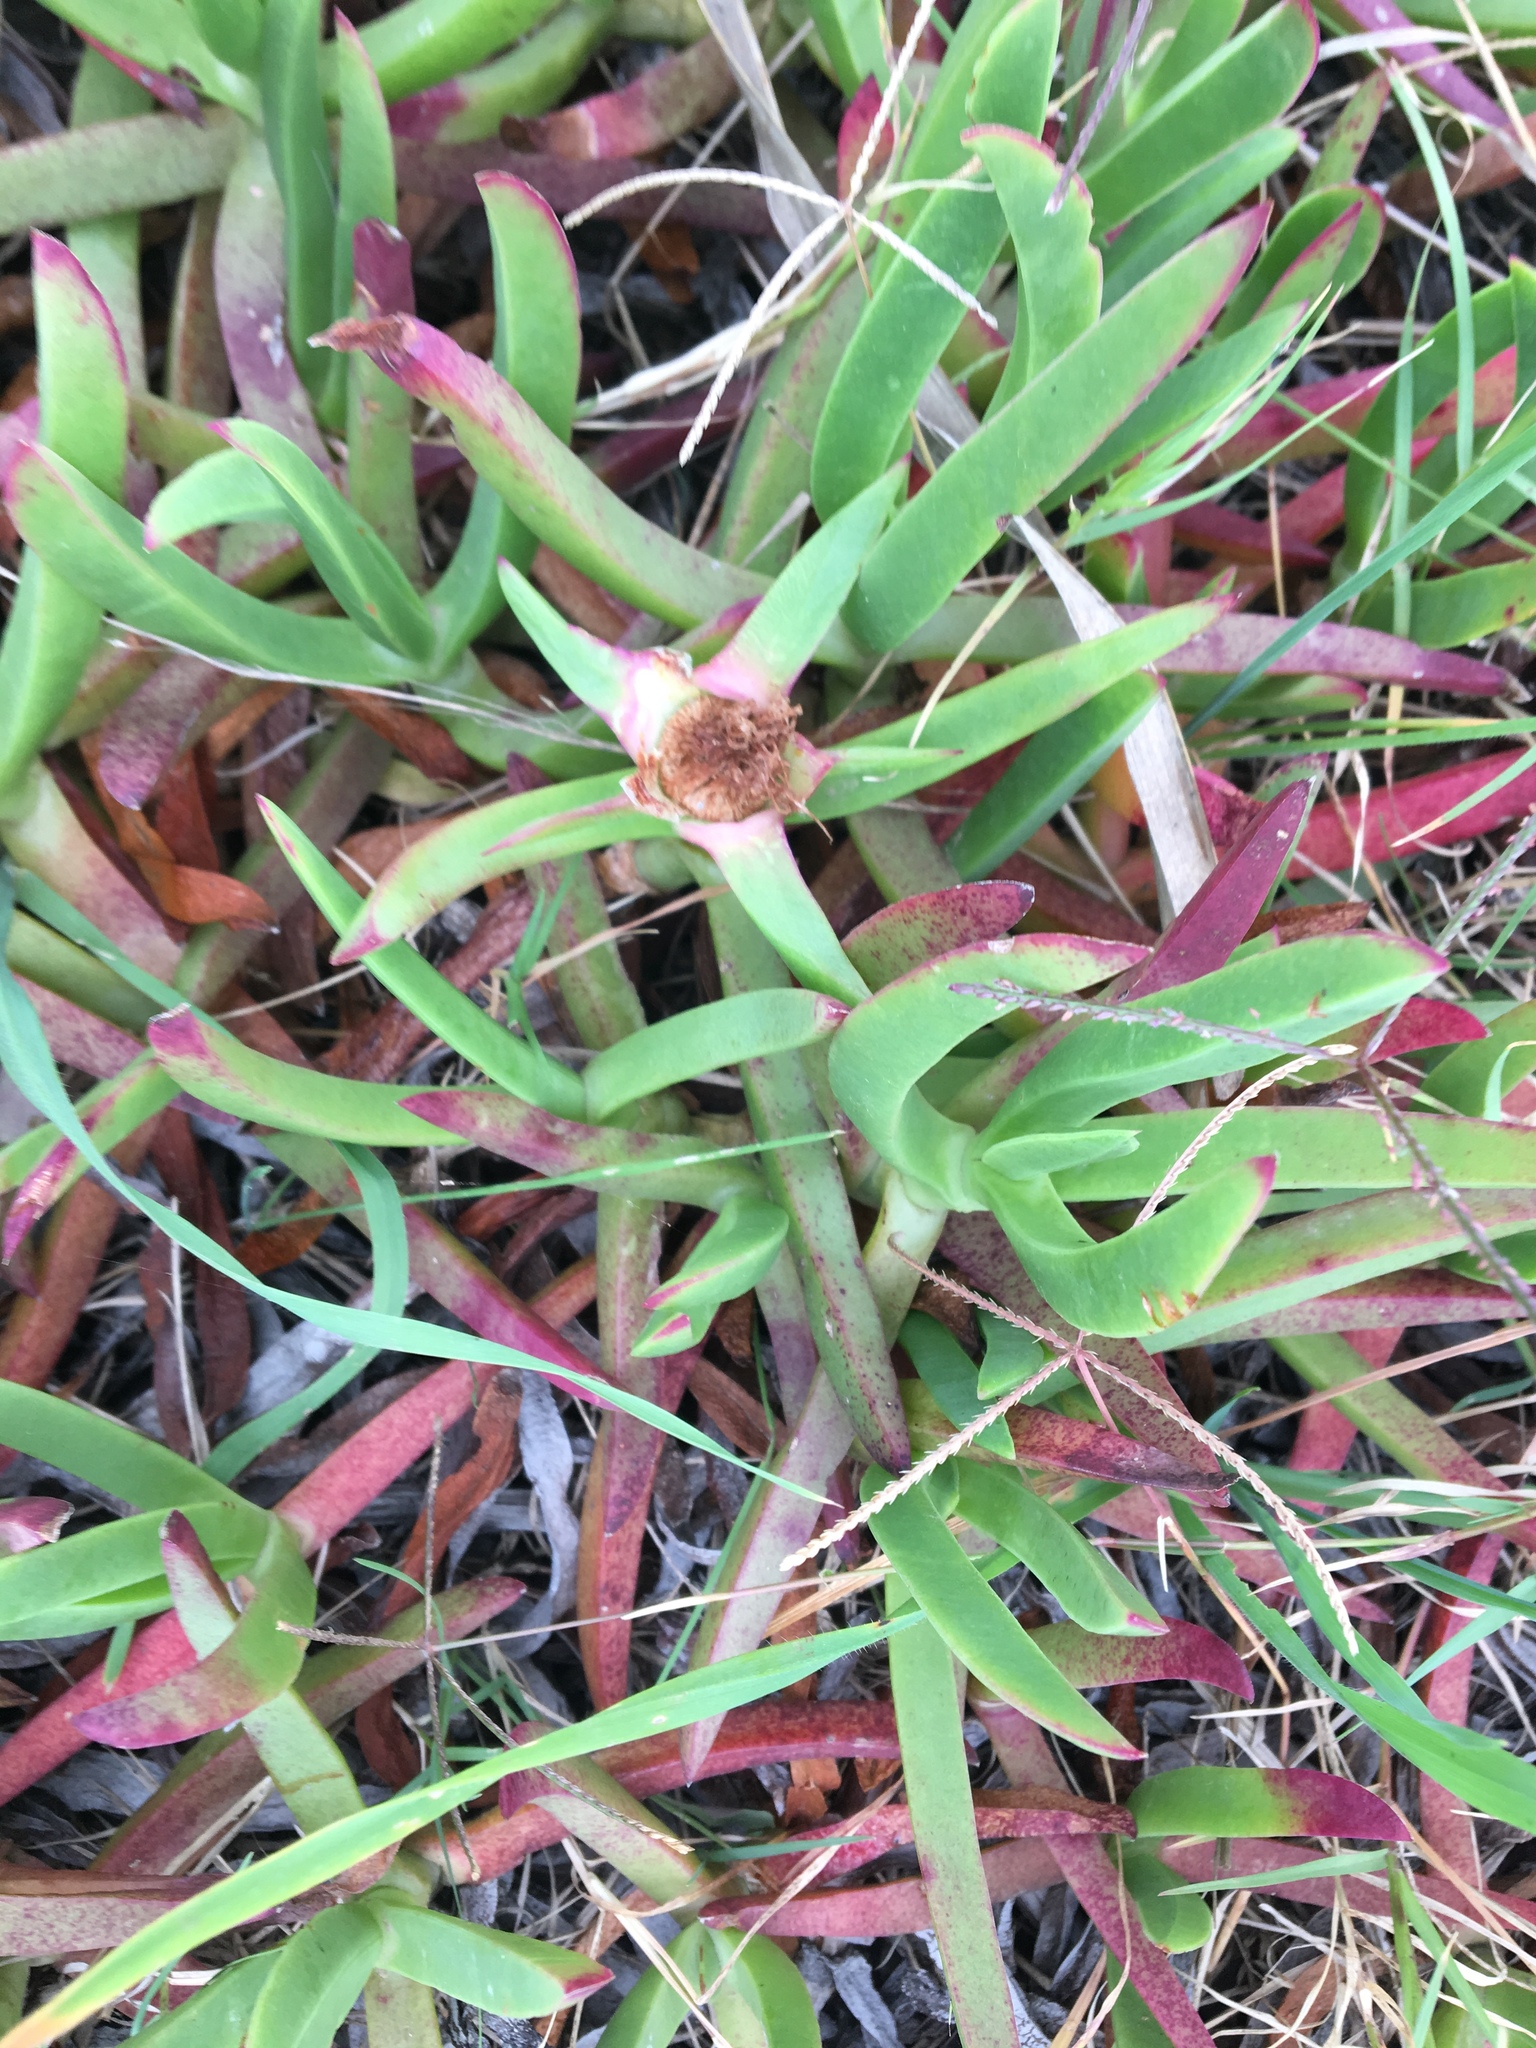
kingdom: Plantae
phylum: Tracheophyta
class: Magnoliopsida
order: Caryophyllales
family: Aizoaceae
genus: Carpobrotus
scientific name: Carpobrotus glaucescens
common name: Angular sea-fig
